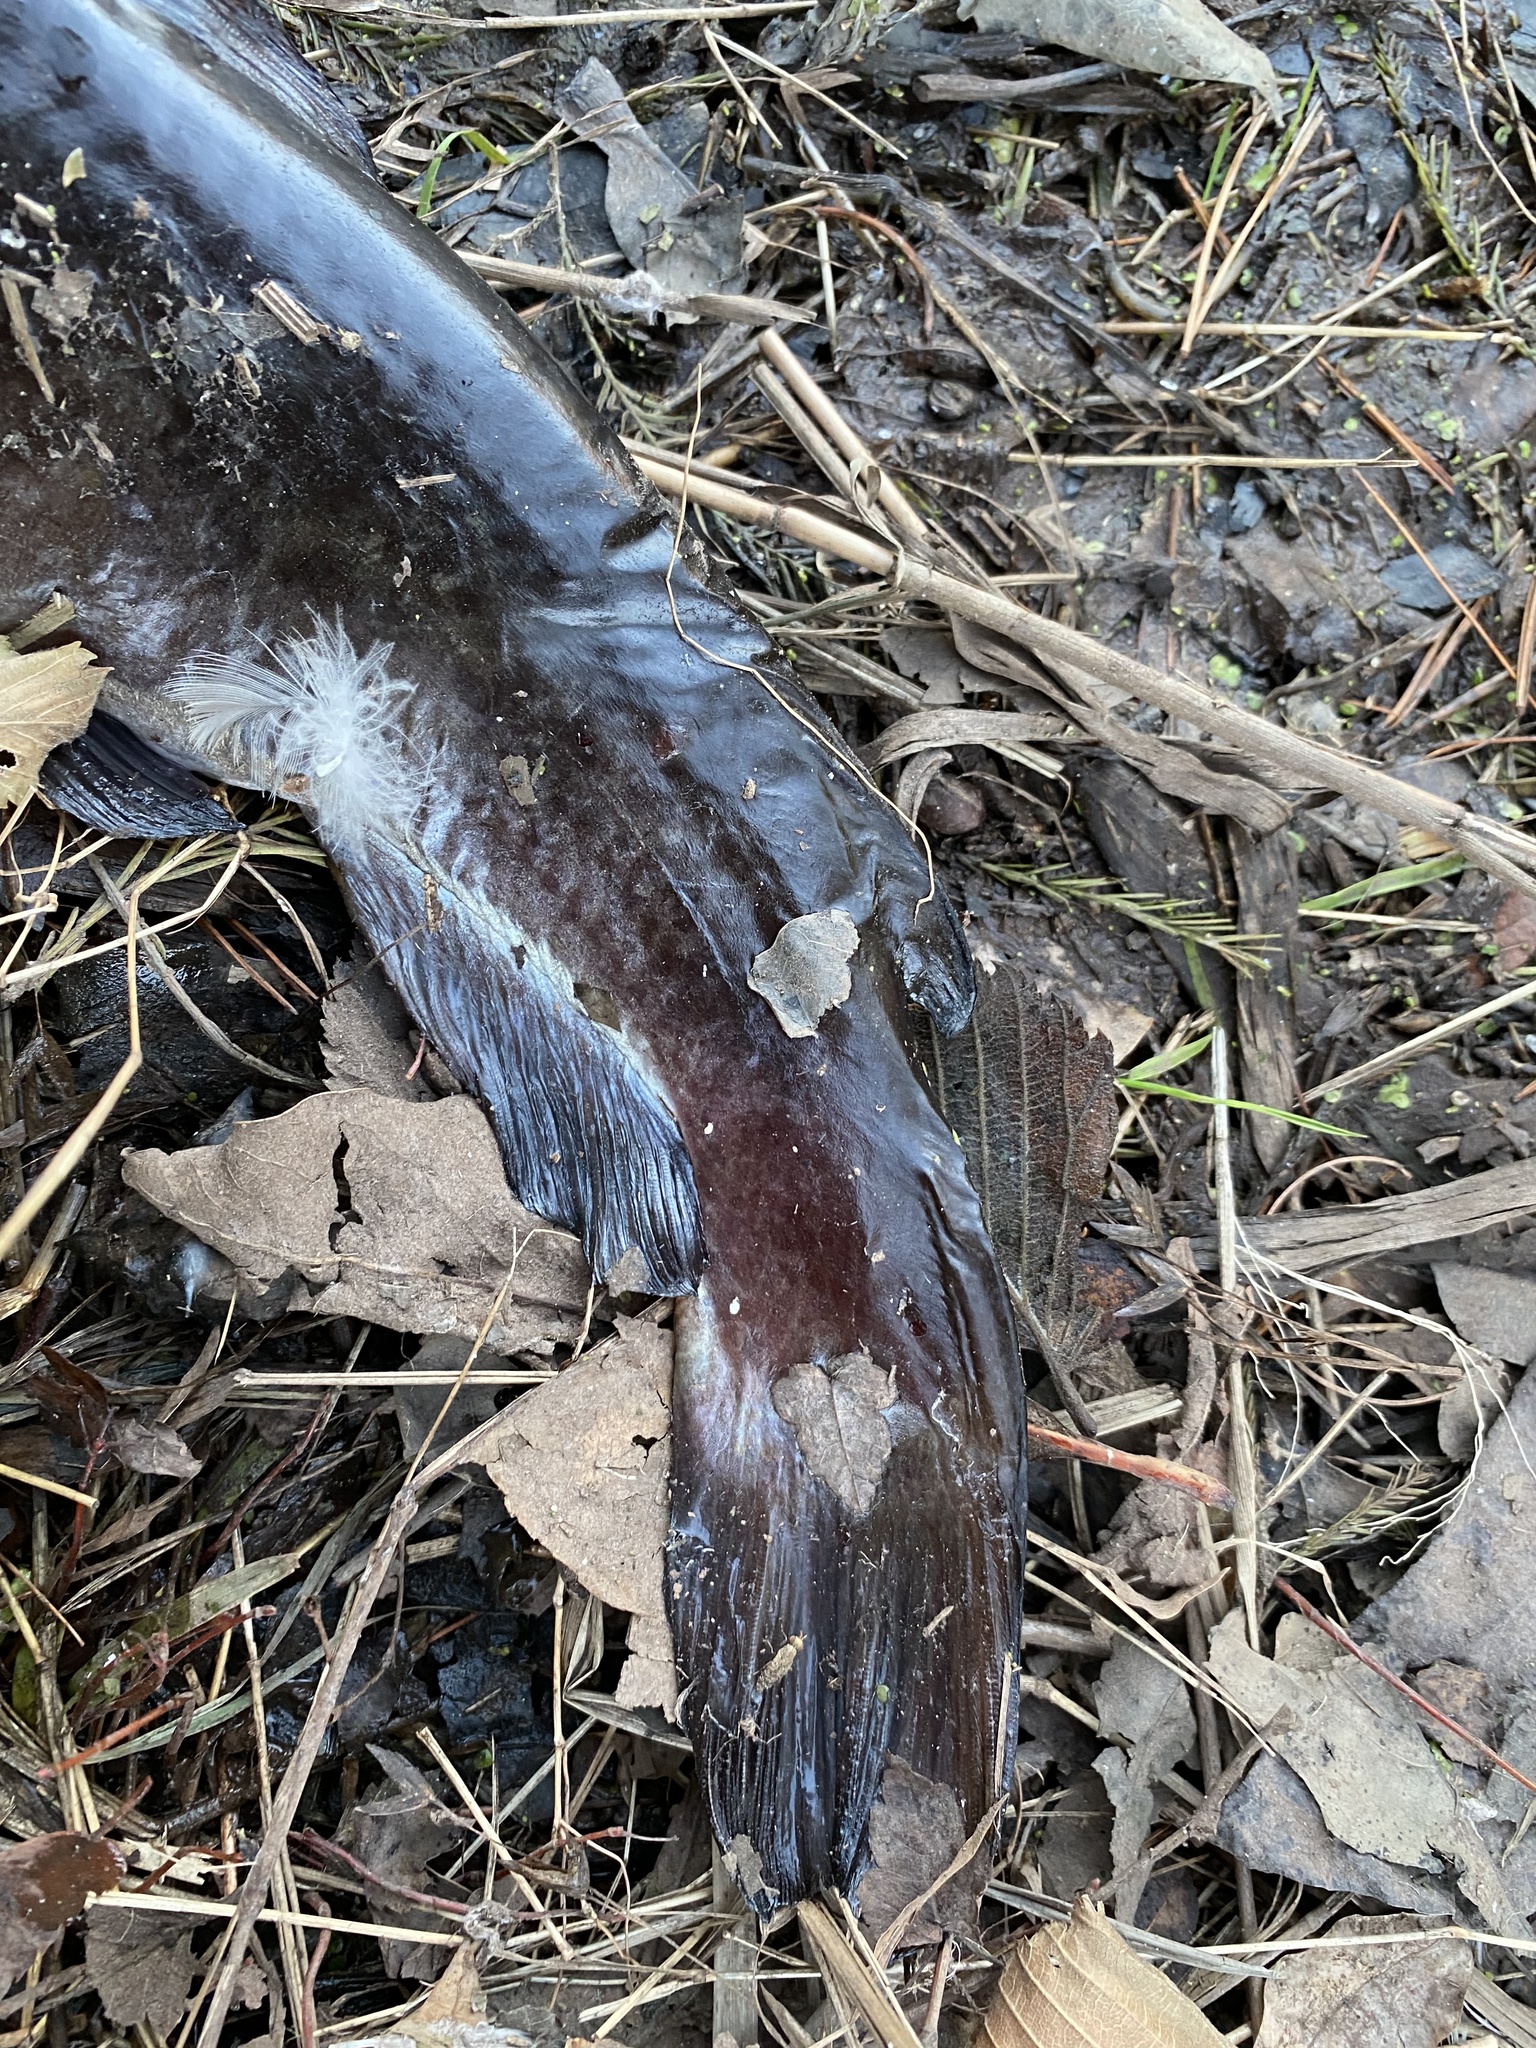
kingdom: Animalia
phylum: Chordata
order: Siluriformes
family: Ictaluridae
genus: Ameiurus
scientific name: Ameiurus nebulosus
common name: Brown bullhead
